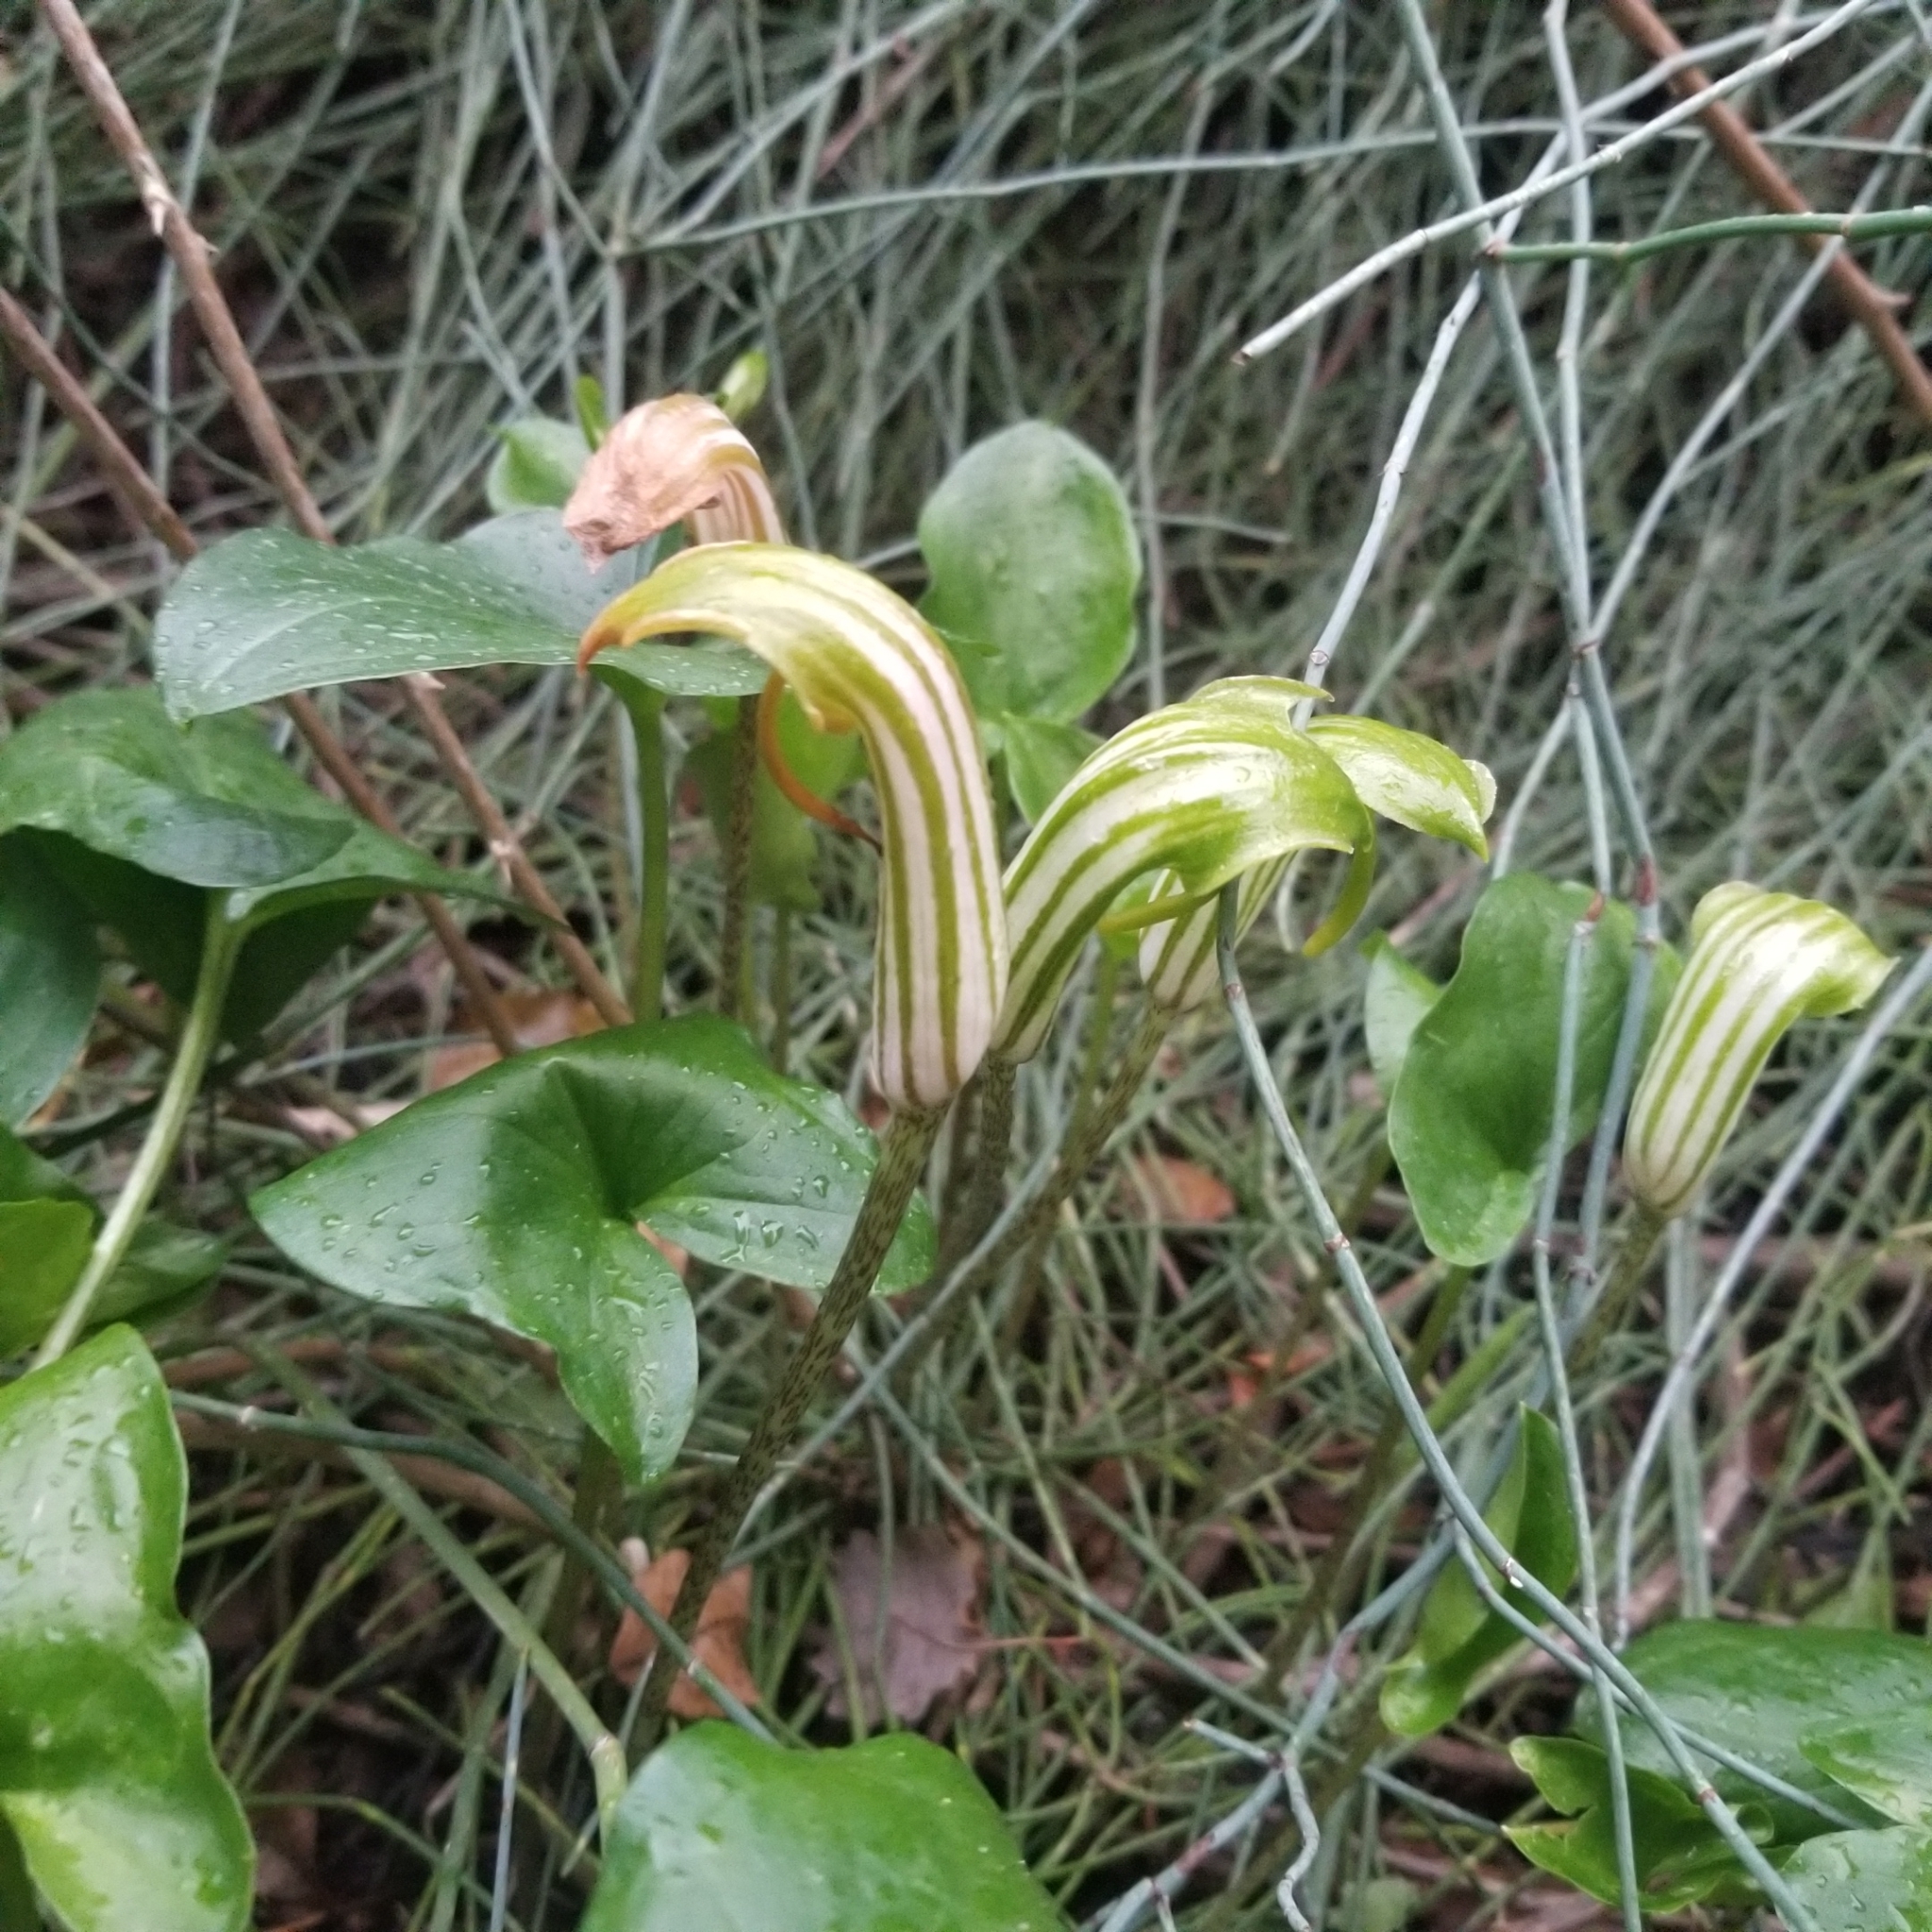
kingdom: Plantae
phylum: Tracheophyta
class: Liliopsida
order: Alismatales
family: Araceae
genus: Arisarum
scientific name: Arisarum vulgare
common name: Common arisarum
